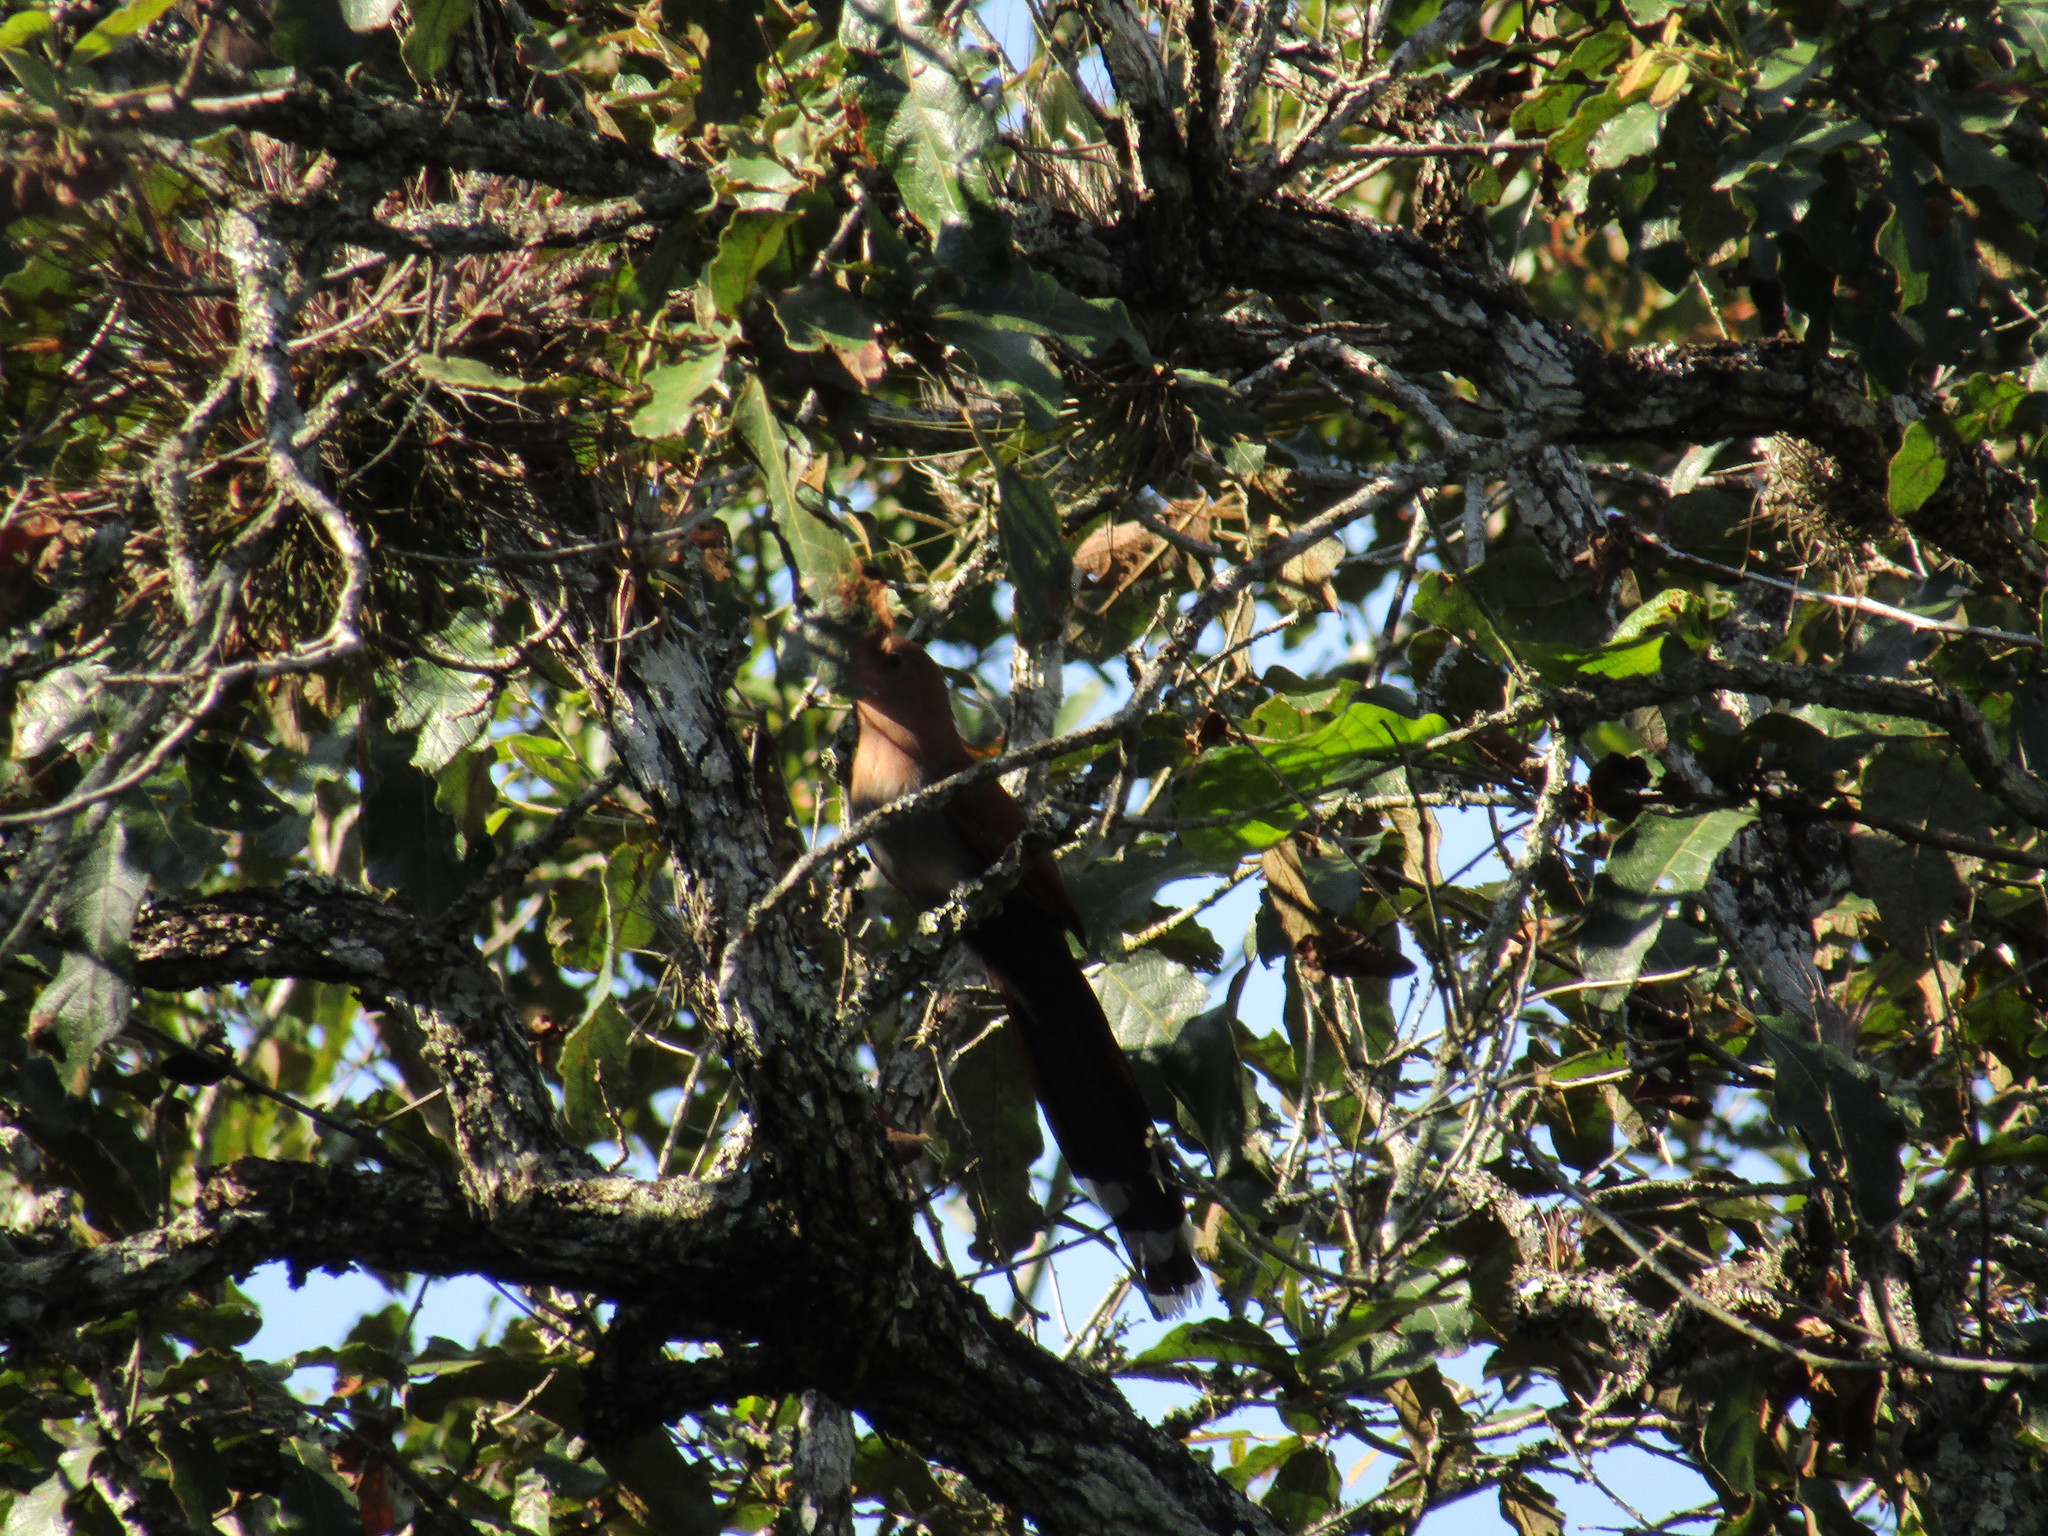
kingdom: Animalia
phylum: Chordata
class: Aves
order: Cuculiformes
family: Cuculidae
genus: Piaya
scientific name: Piaya cayana
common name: Squirrel cuckoo
